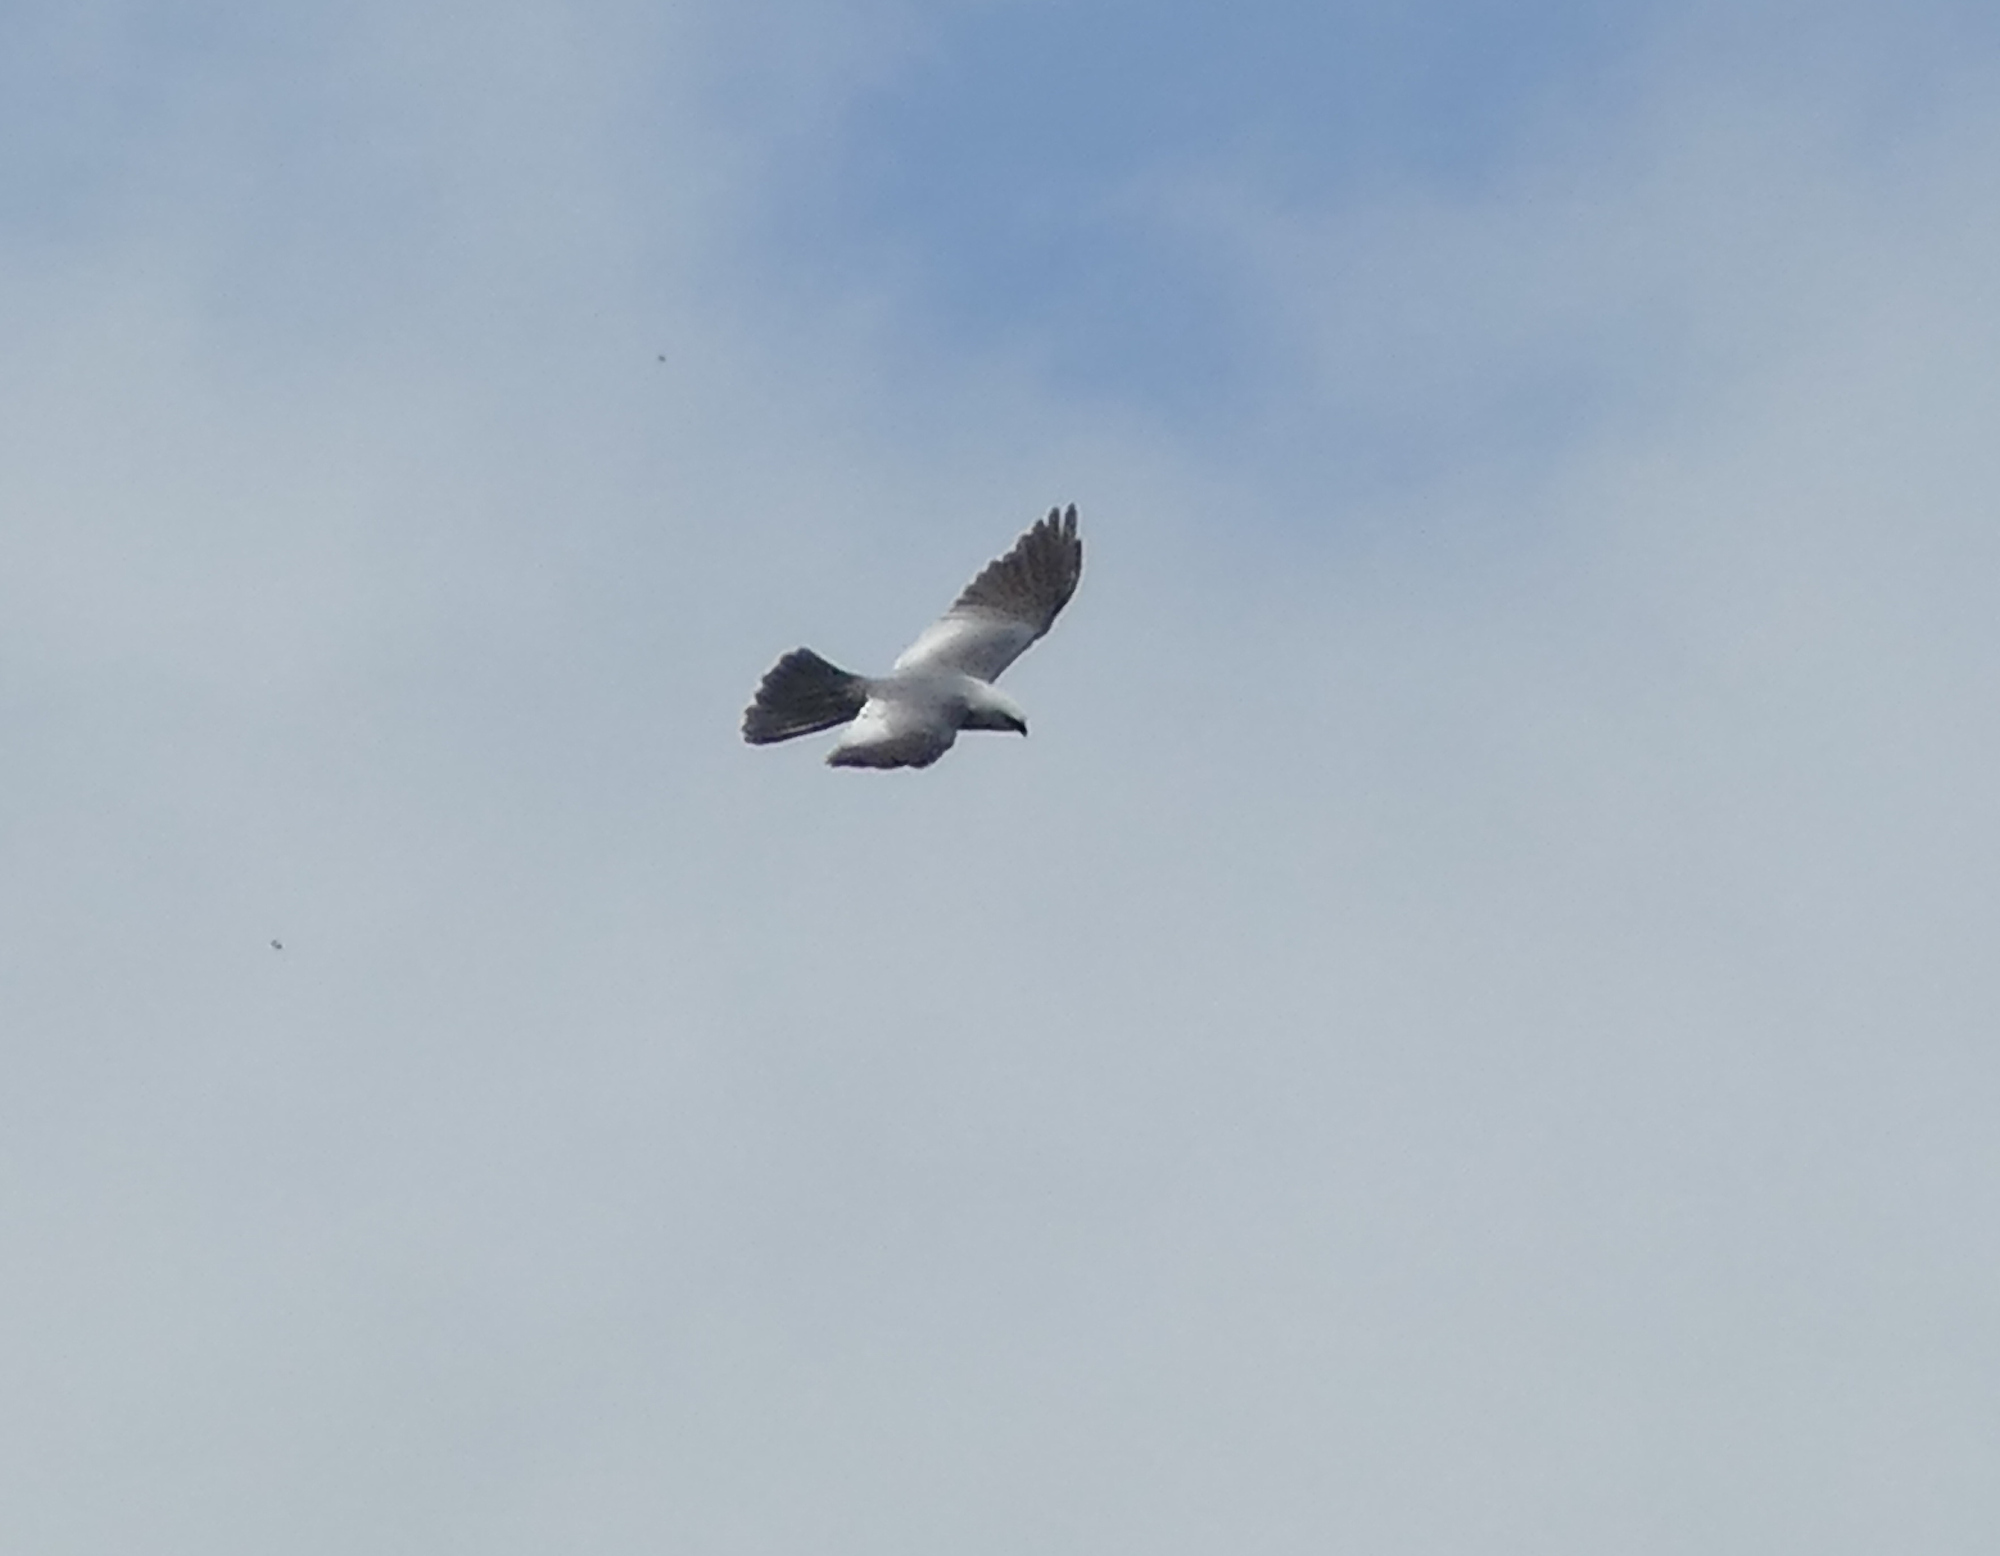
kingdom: Animalia
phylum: Chordata
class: Aves
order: Accipitriformes
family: Accipitridae
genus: Ictinia
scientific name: Ictinia mississippiensis
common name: Mississippi kite
